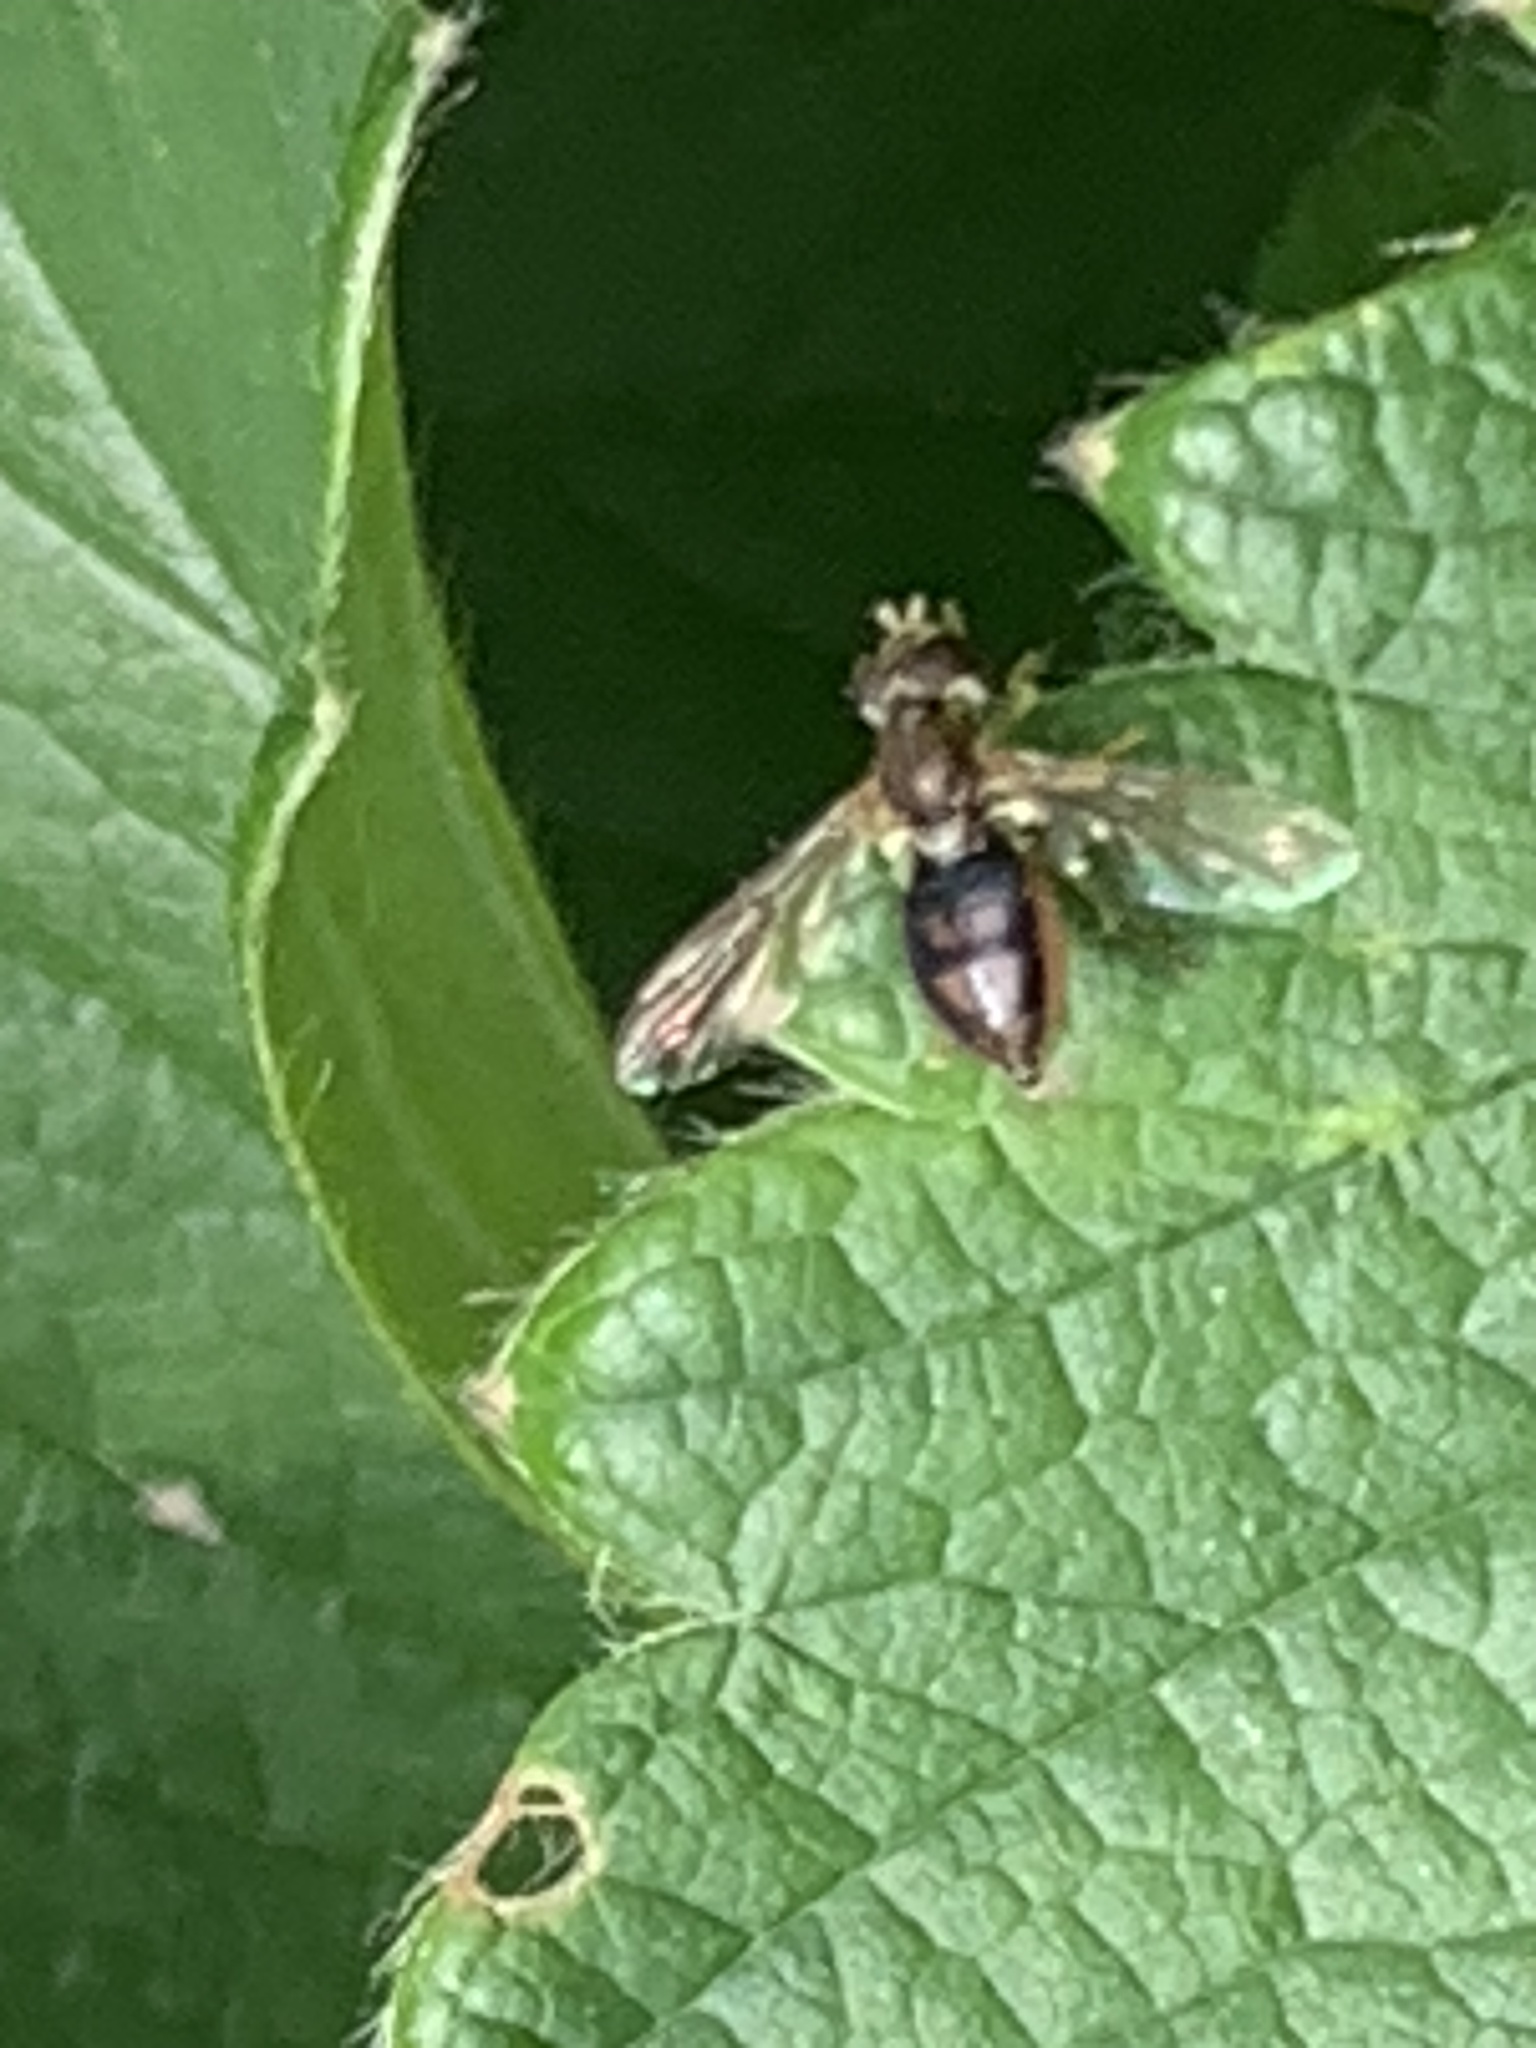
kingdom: Animalia
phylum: Arthropoda
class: Insecta
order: Diptera
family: Syrphidae
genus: Toxomerus
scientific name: Toxomerus marginatus
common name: Syrphid fly
